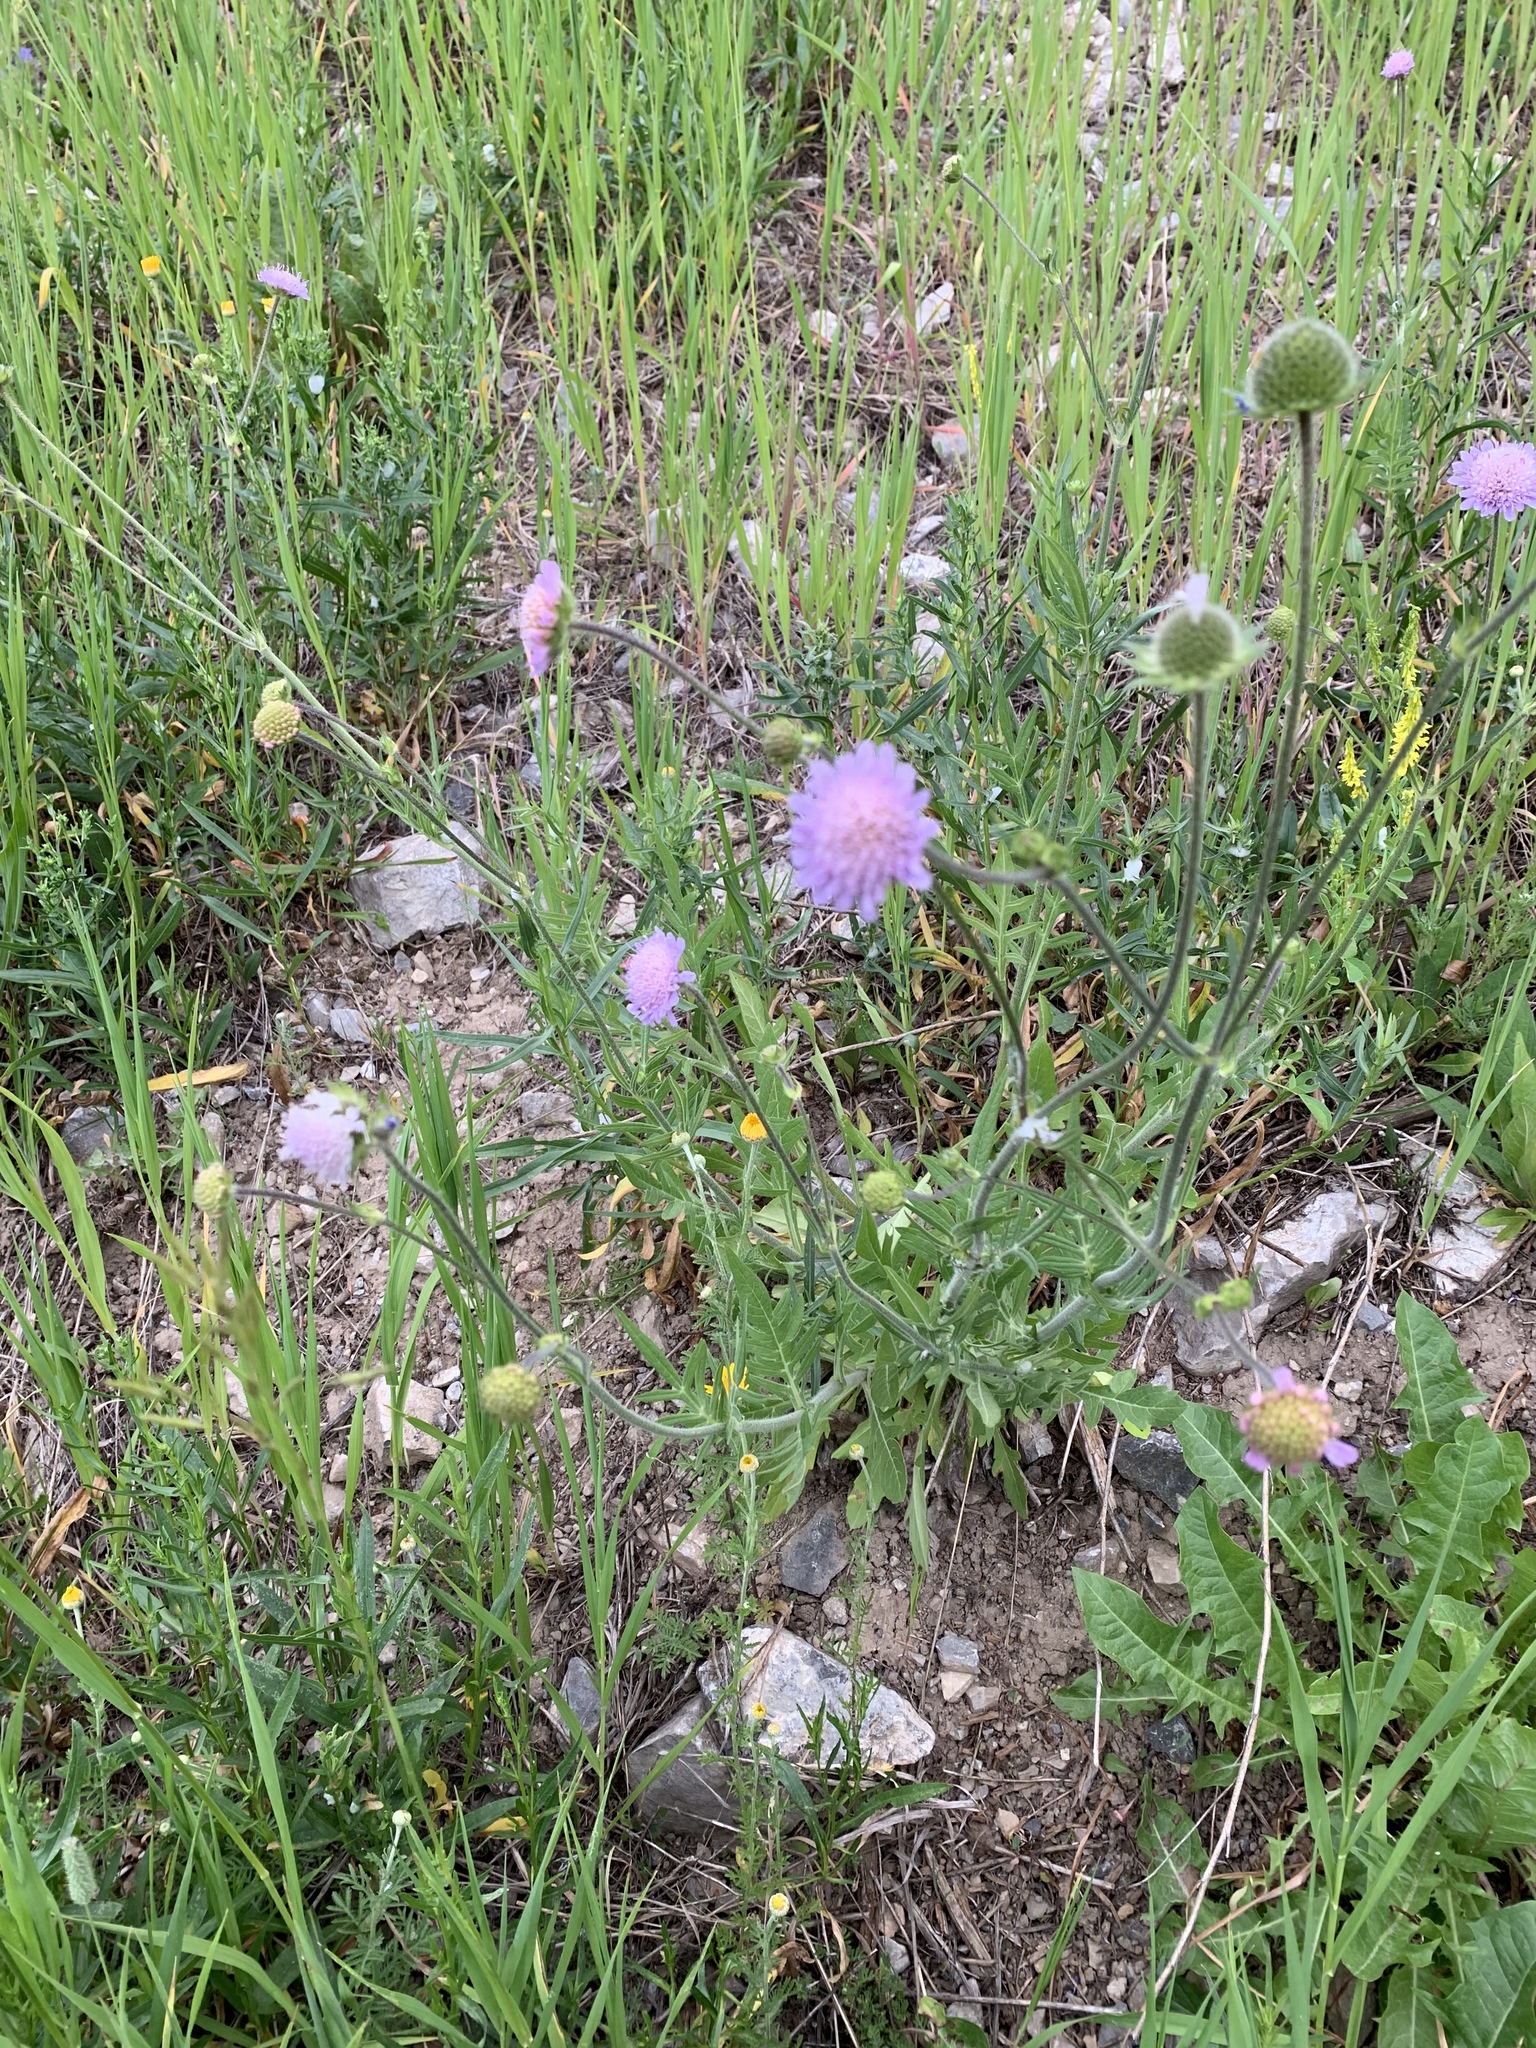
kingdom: Plantae
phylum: Tracheophyta
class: Magnoliopsida
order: Dipsacales
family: Caprifoliaceae
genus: Knautia
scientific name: Knautia arvensis
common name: Field scabiosa
